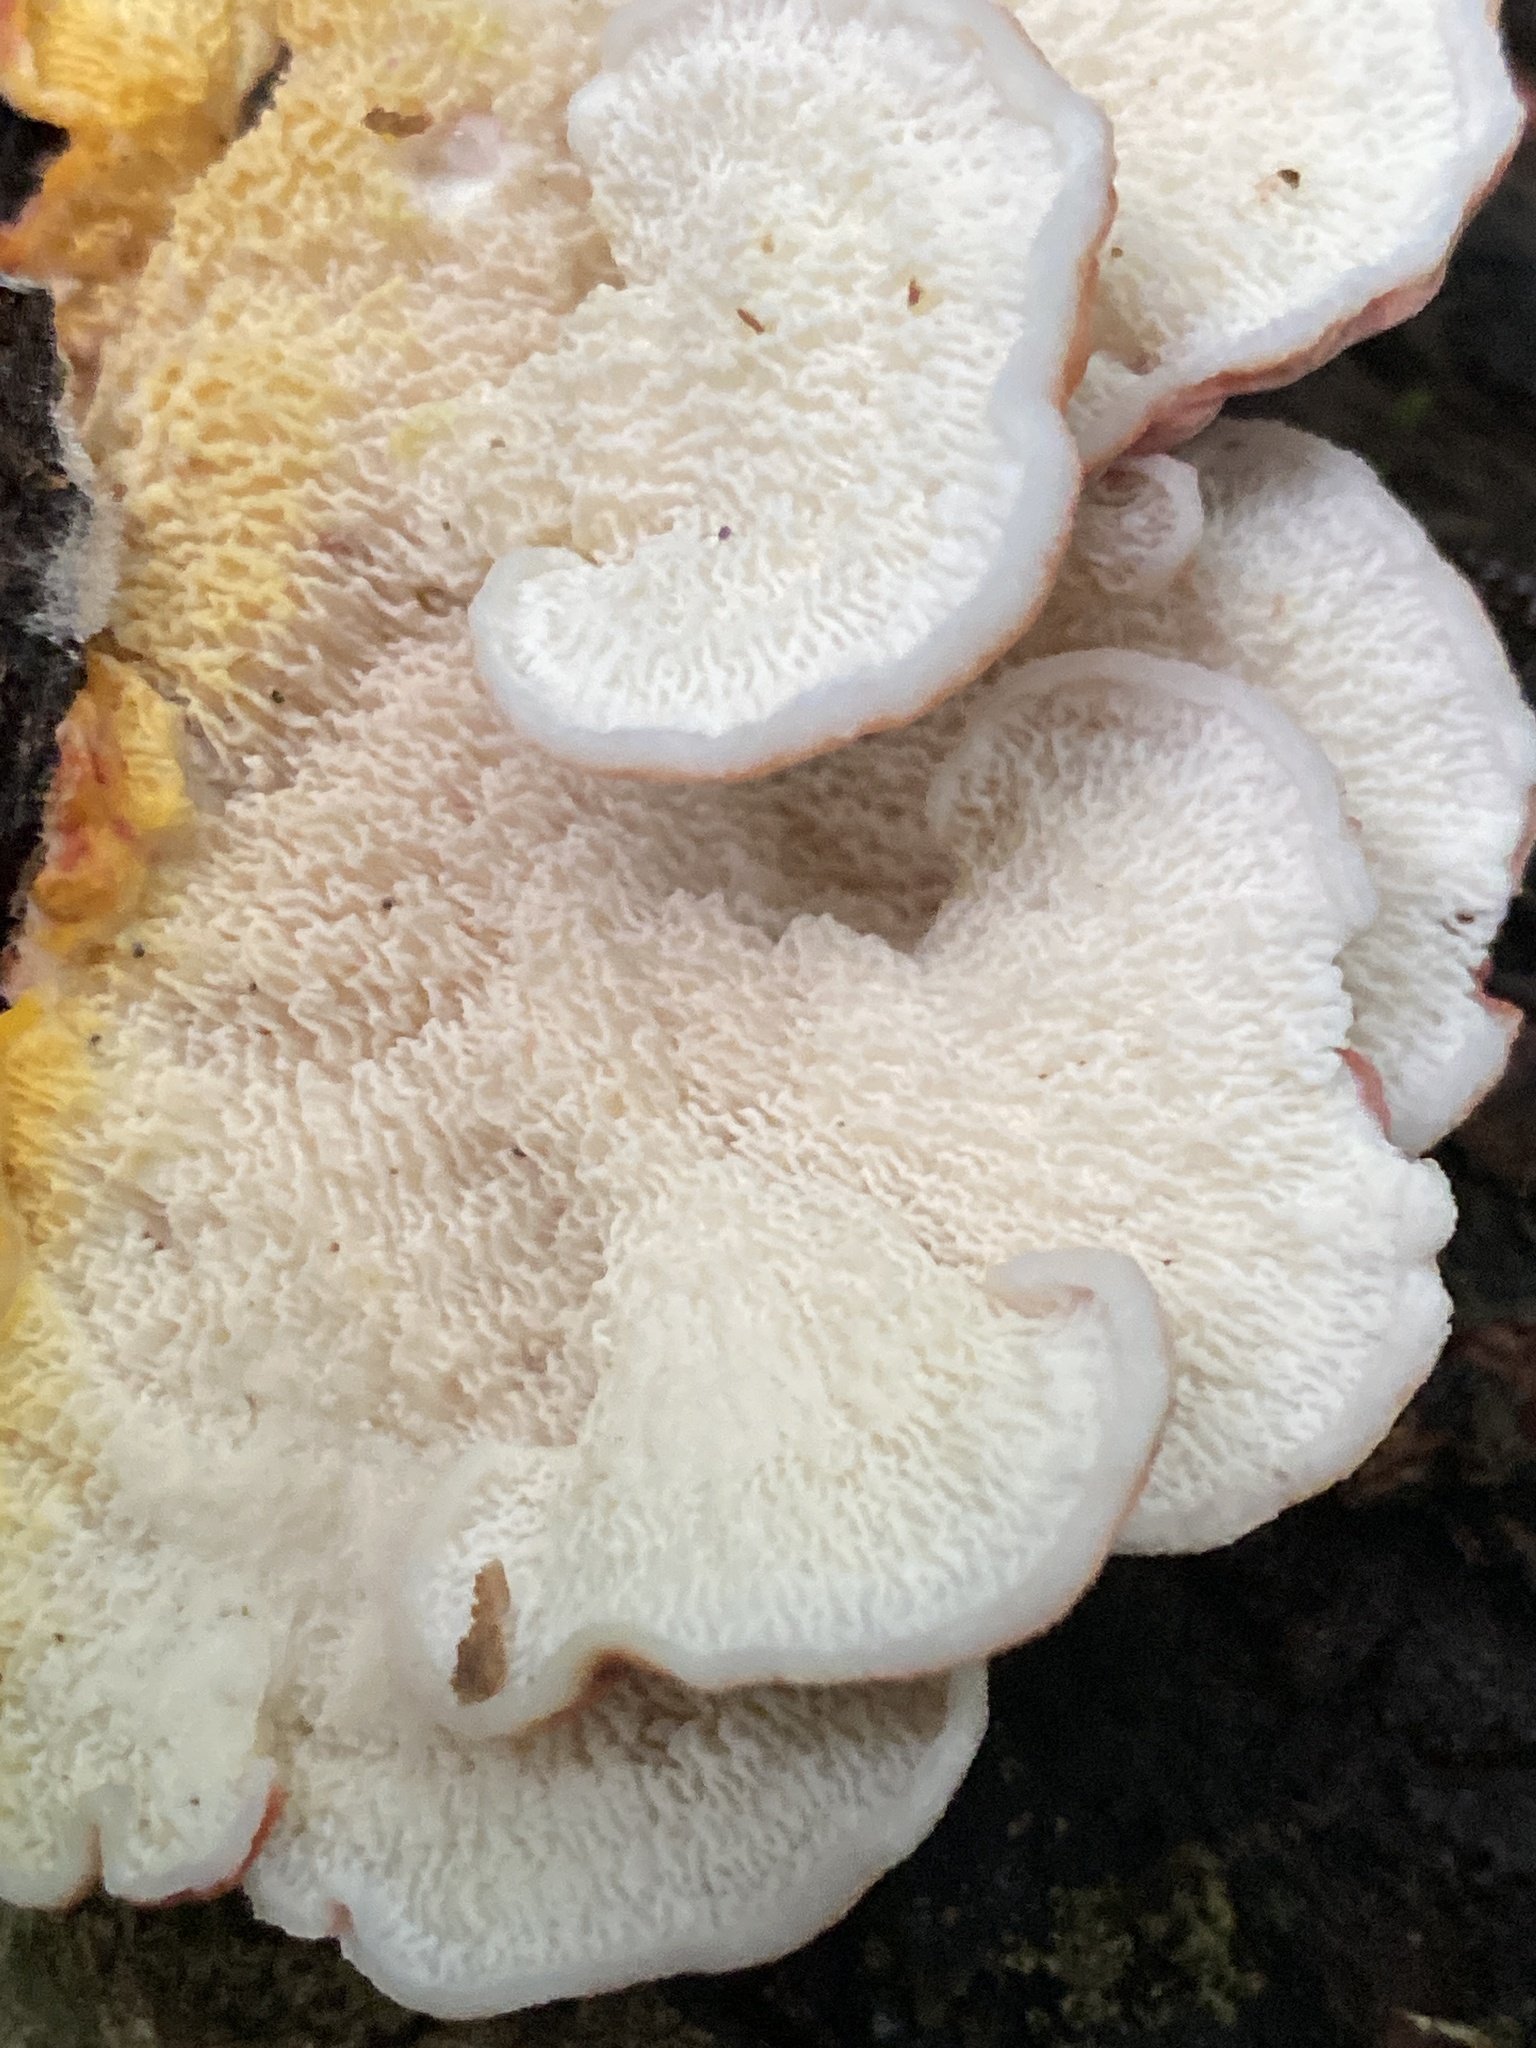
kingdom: Fungi
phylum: Basidiomycota
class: Agaricomycetes
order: Polyporales
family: Irpicaceae
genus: Byssomerulius
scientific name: Byssomerulius incarnatus
